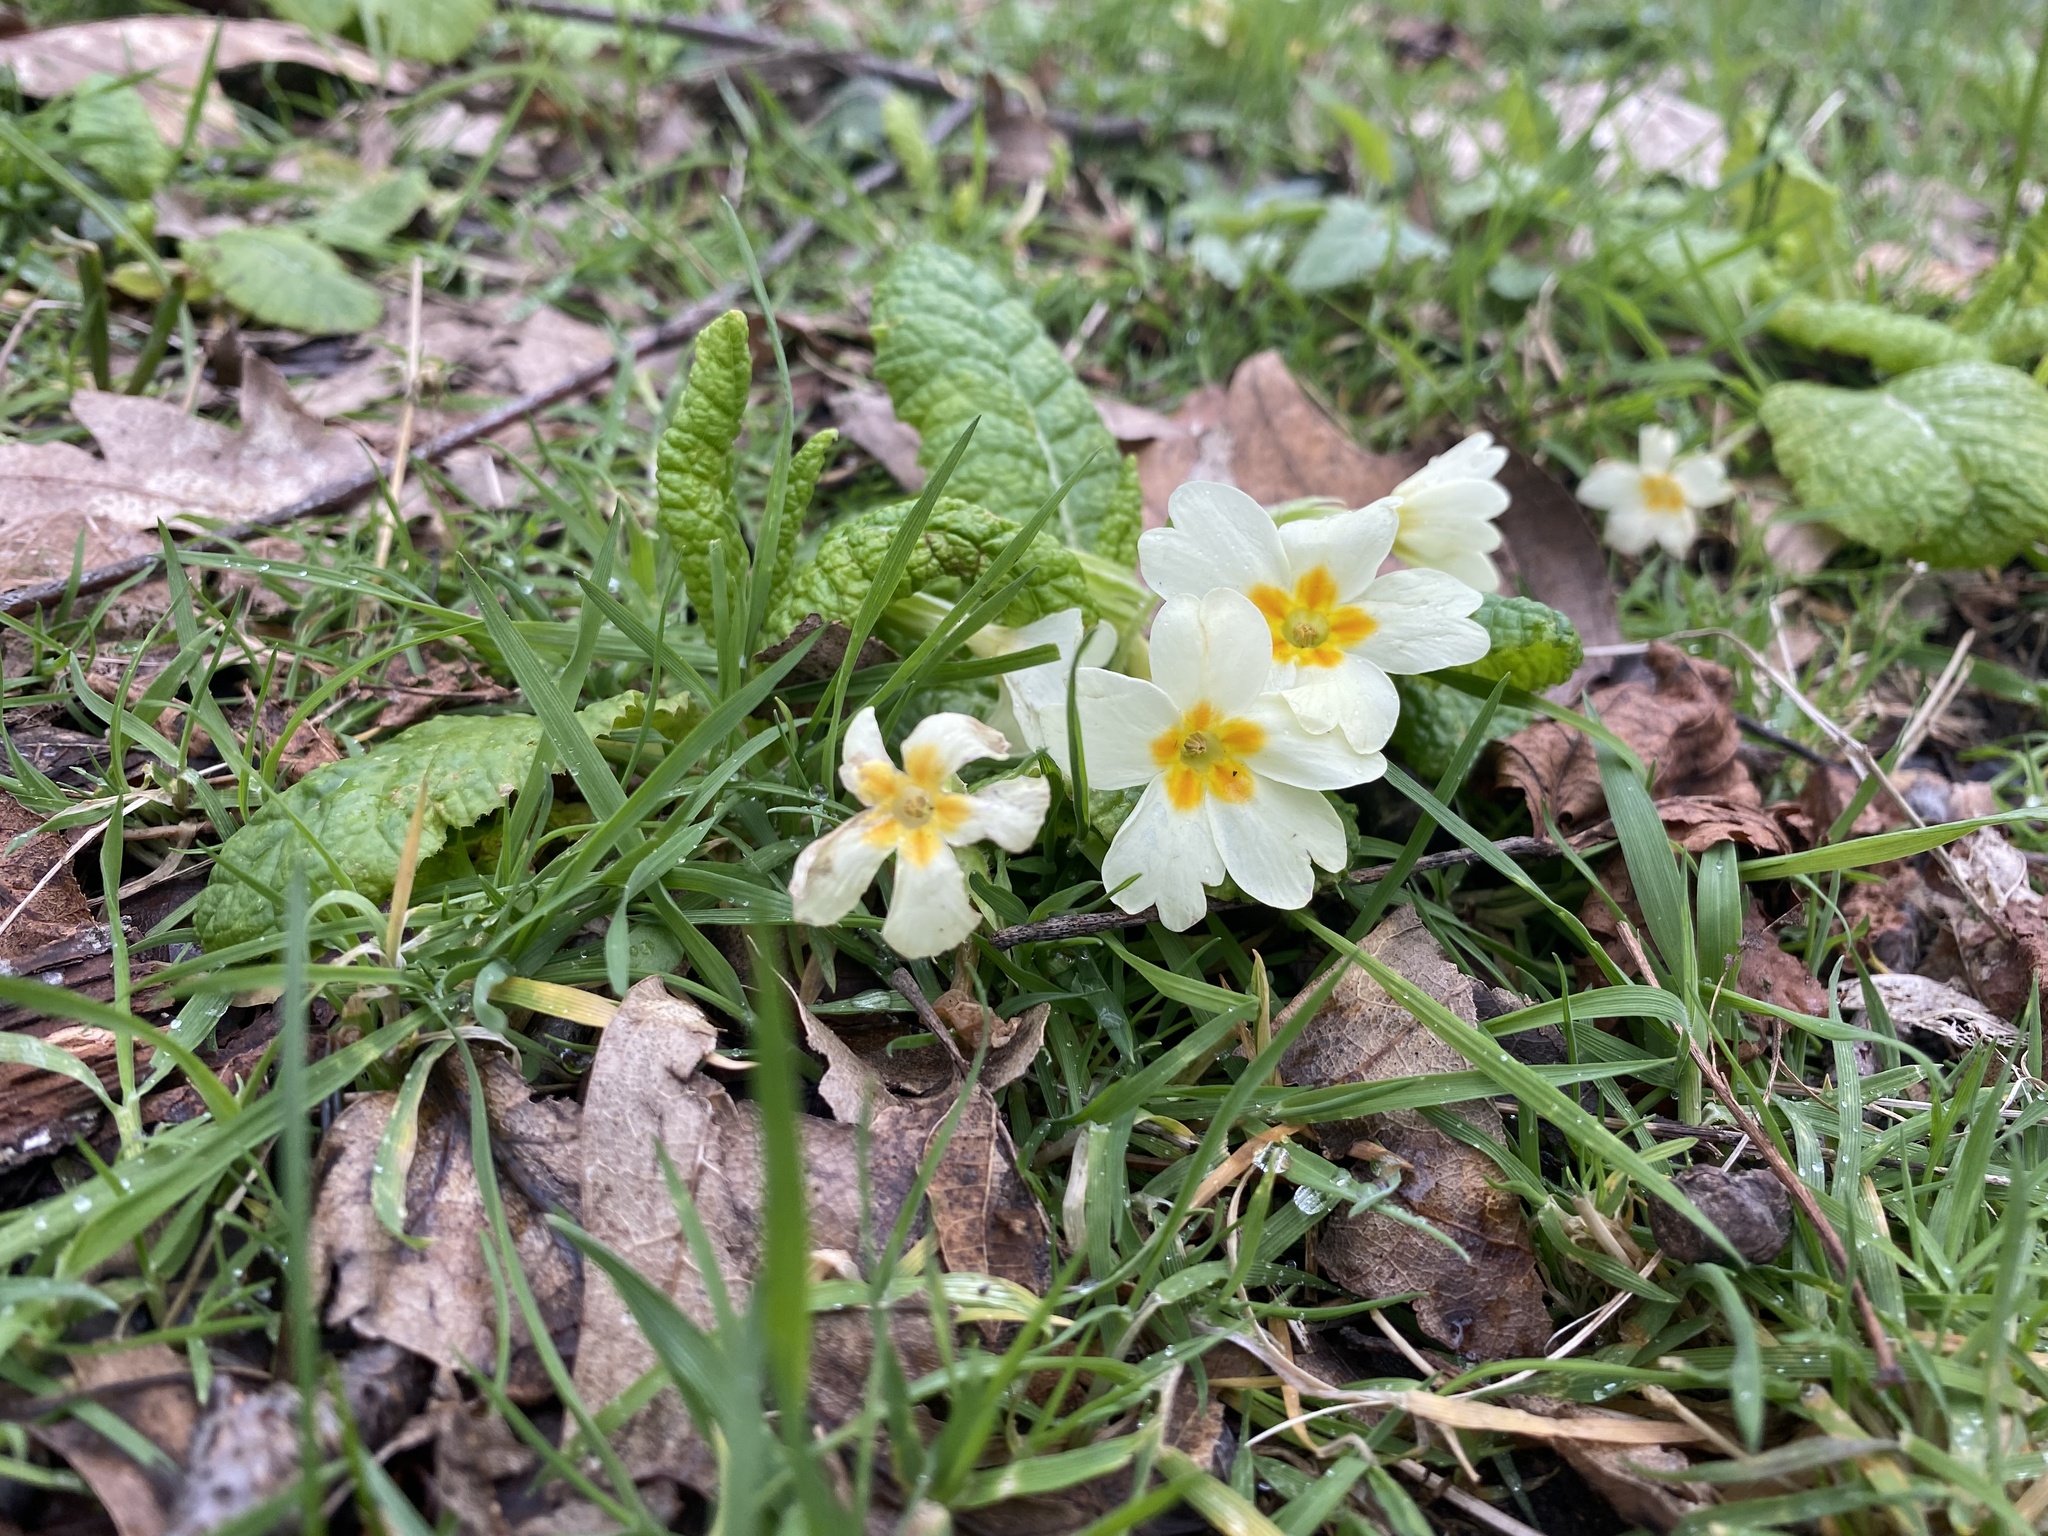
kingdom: Plantae
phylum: Tracheophyta
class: Magnoliopsida
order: Ericales
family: Primulaceae
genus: Primula
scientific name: Primula vulgaris
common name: Primrose
